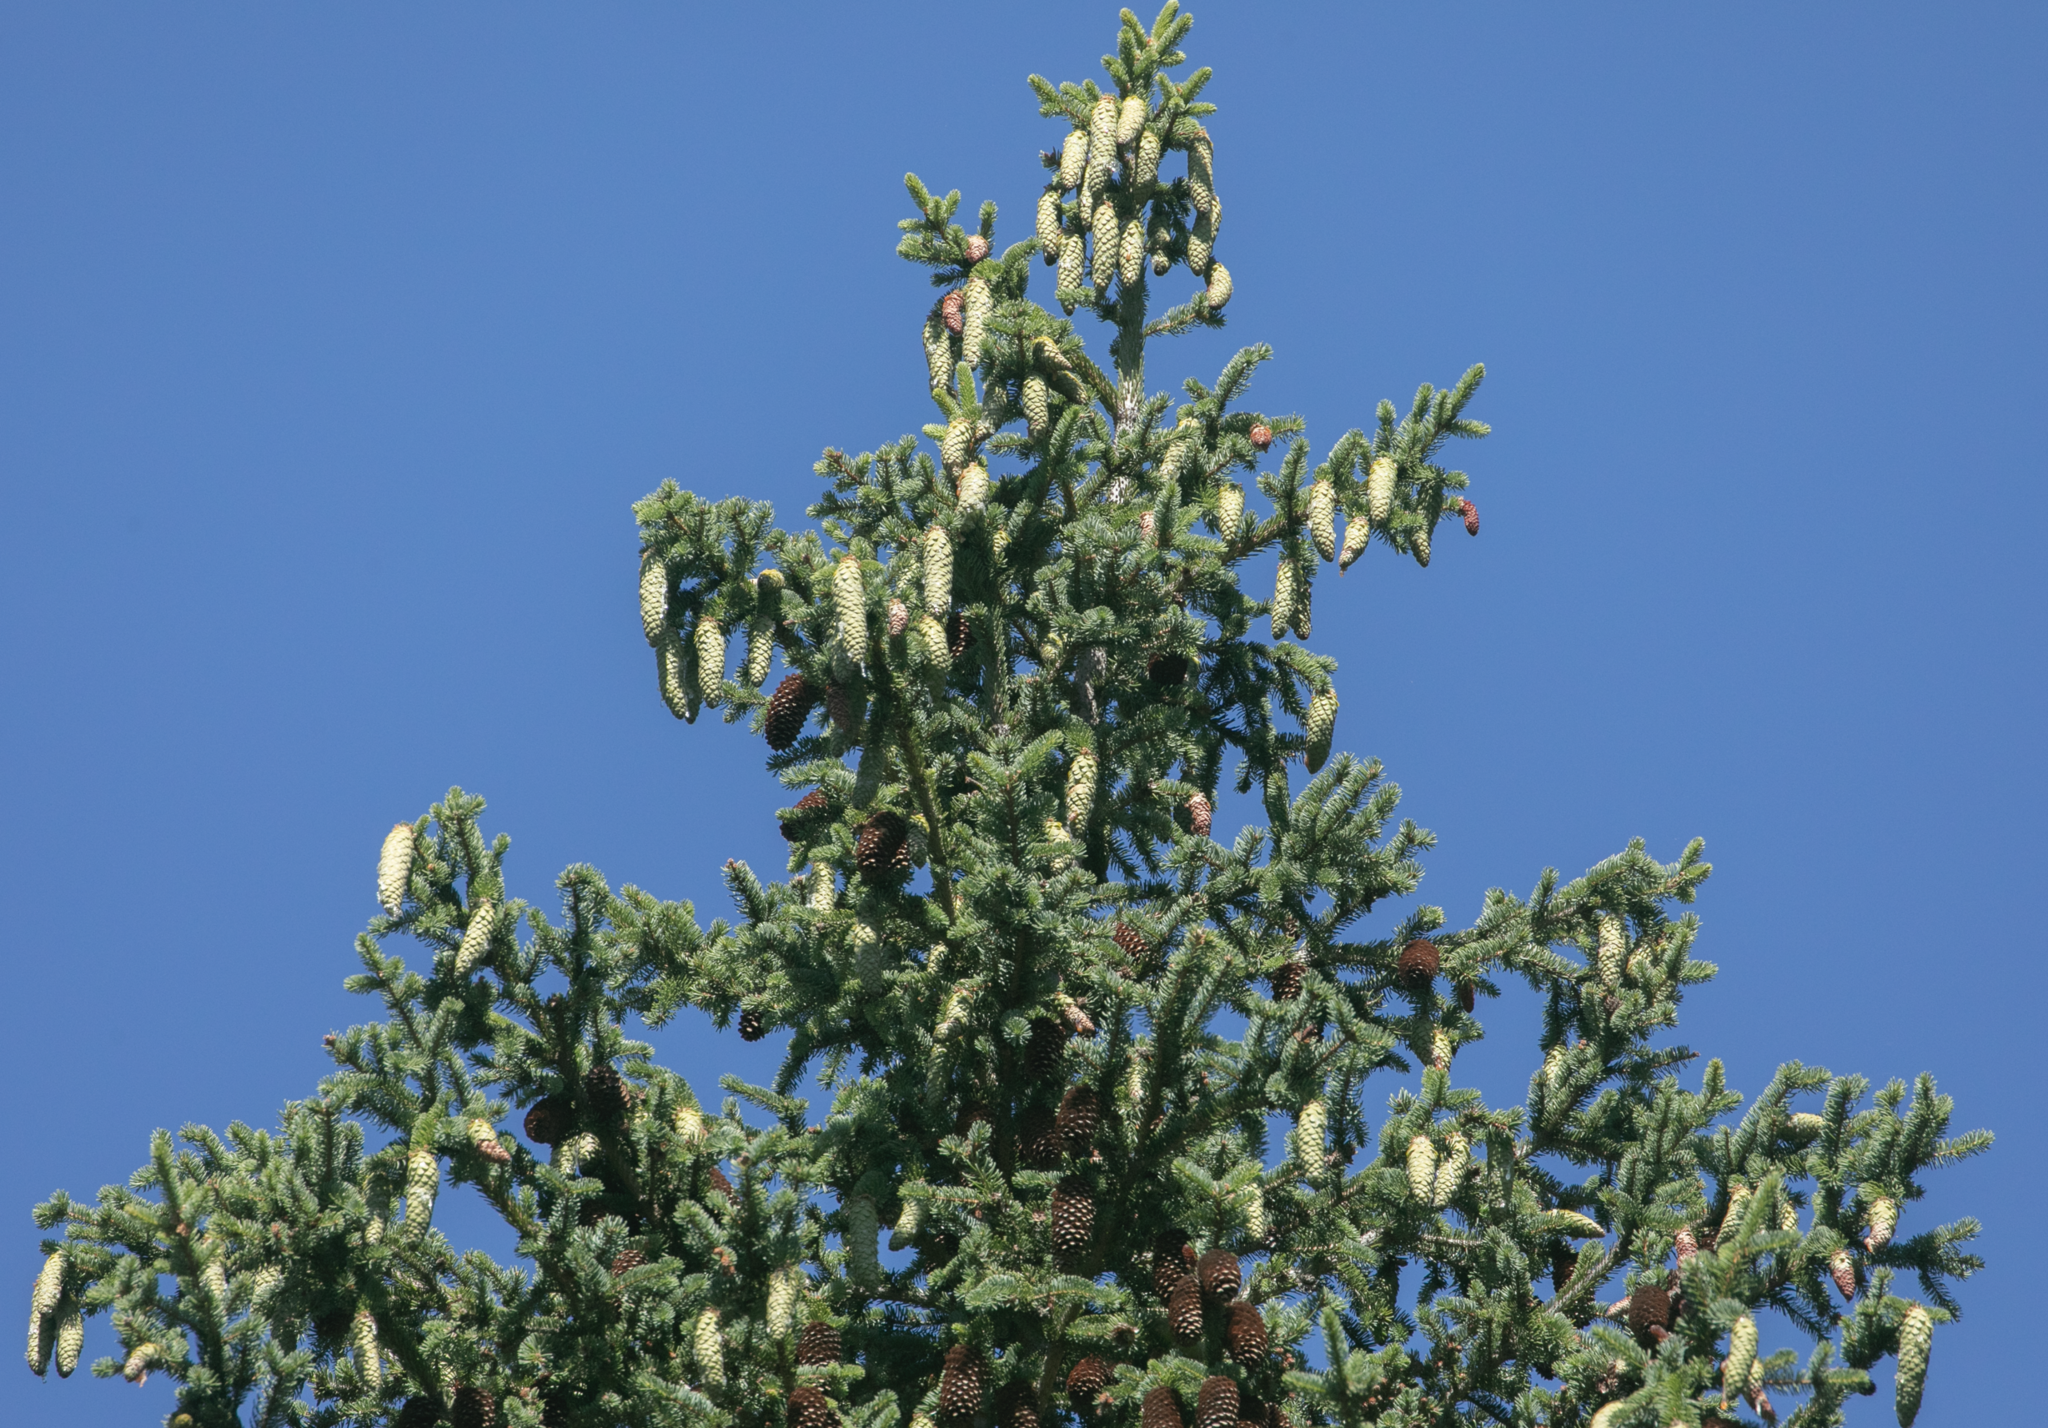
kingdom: Plantae
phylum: Tracheophyta
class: Pinopsida
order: Pinales
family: Pinaceae
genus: Picea
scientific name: Picea abies
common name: Norway spruce
